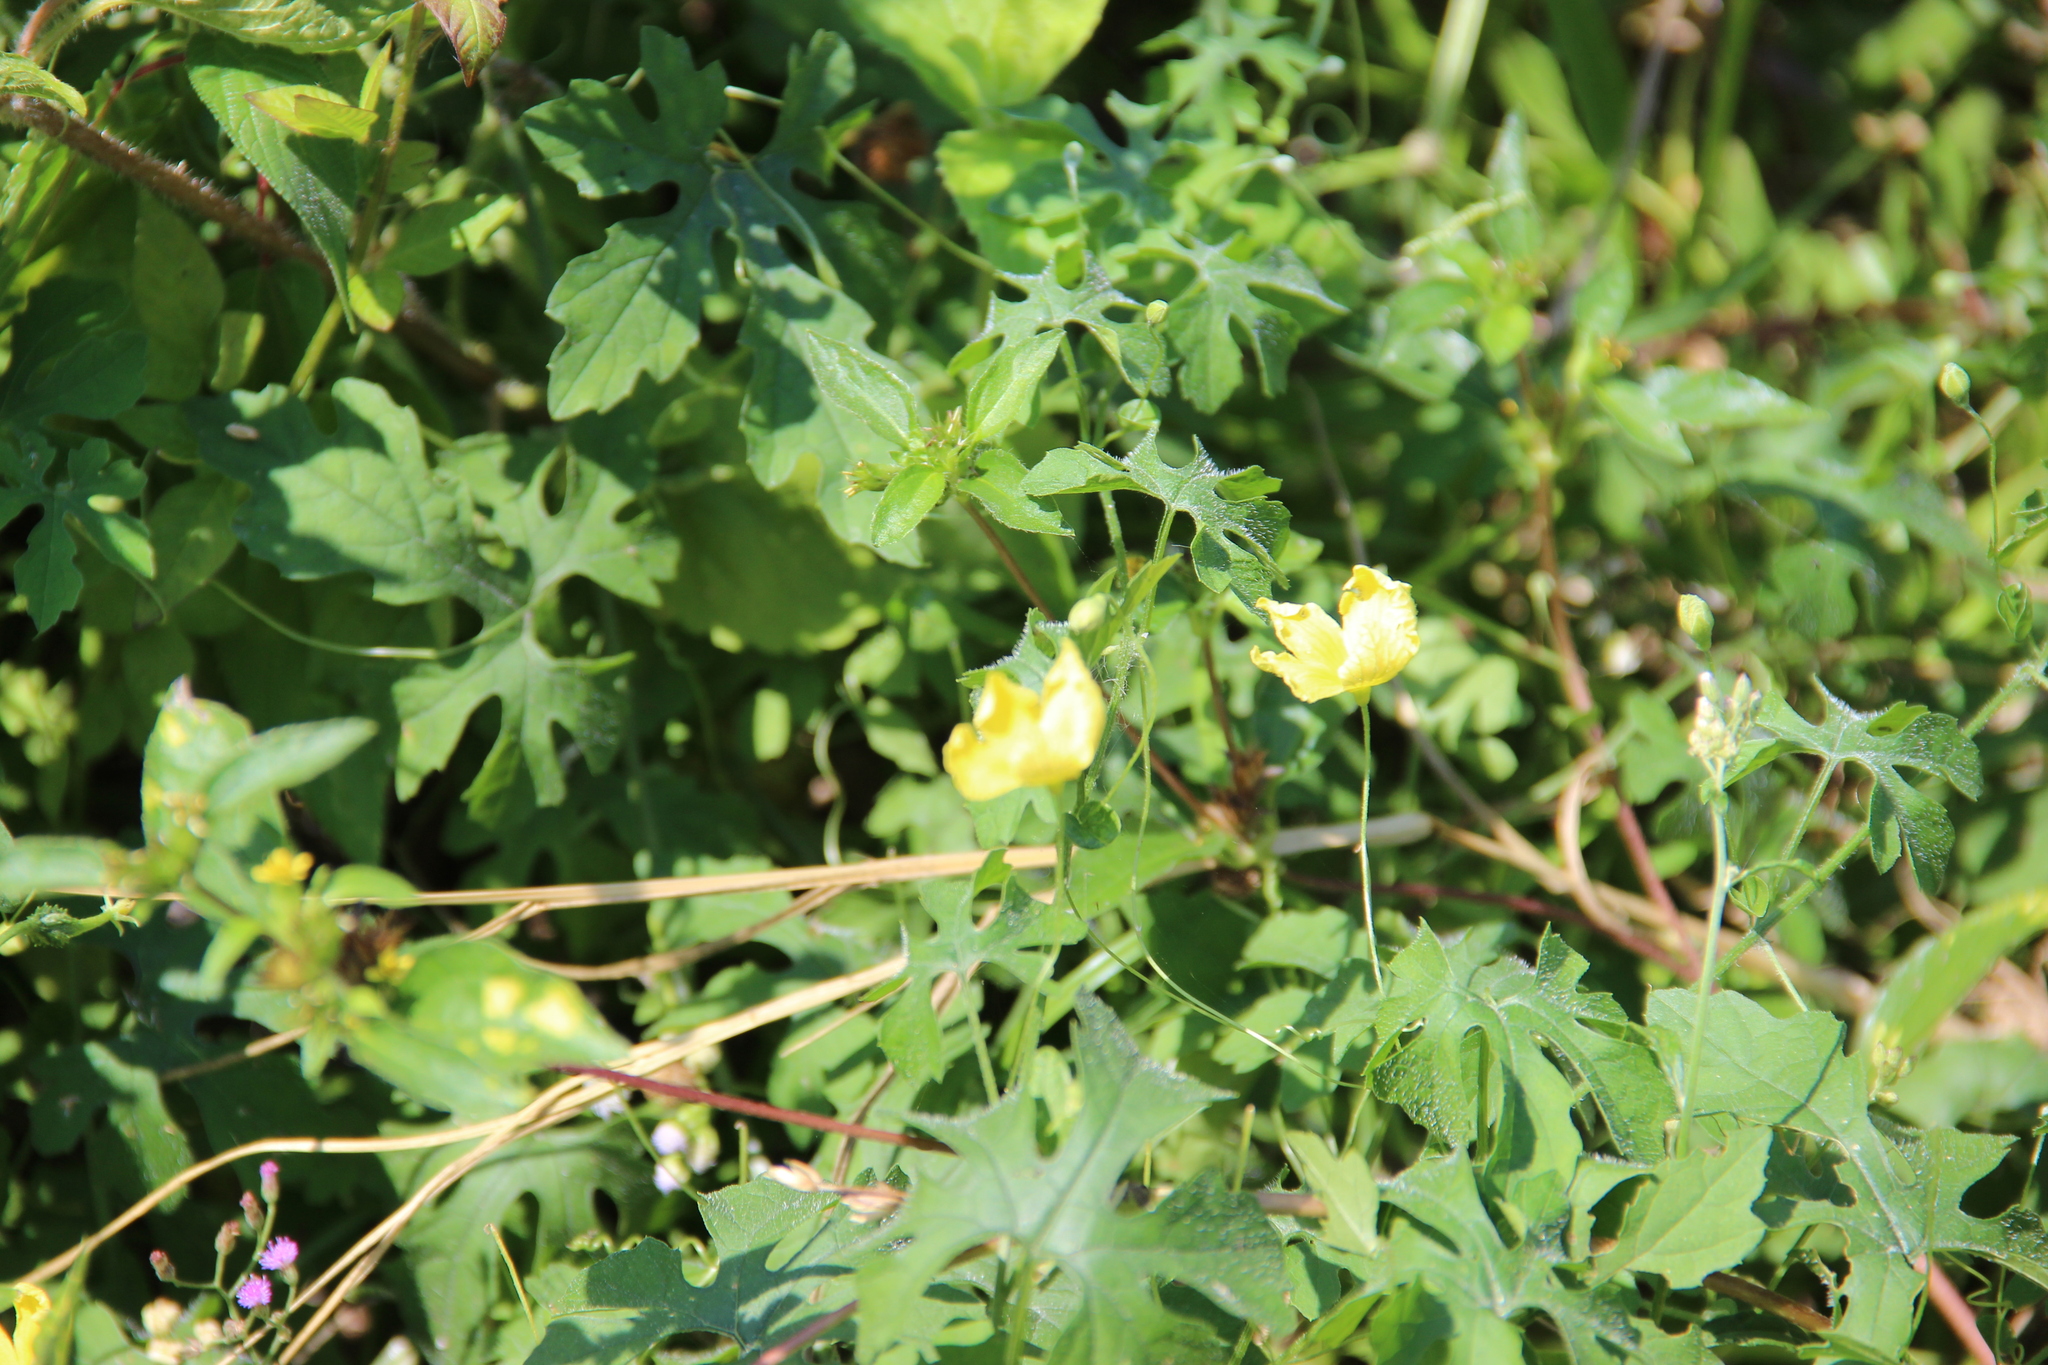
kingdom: Plantae
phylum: Tracheophyta
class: Magnoliopsida
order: Cucurbitales
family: Cucurbitaceae
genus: Momordica
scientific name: Momordica charantia
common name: Balsampear
